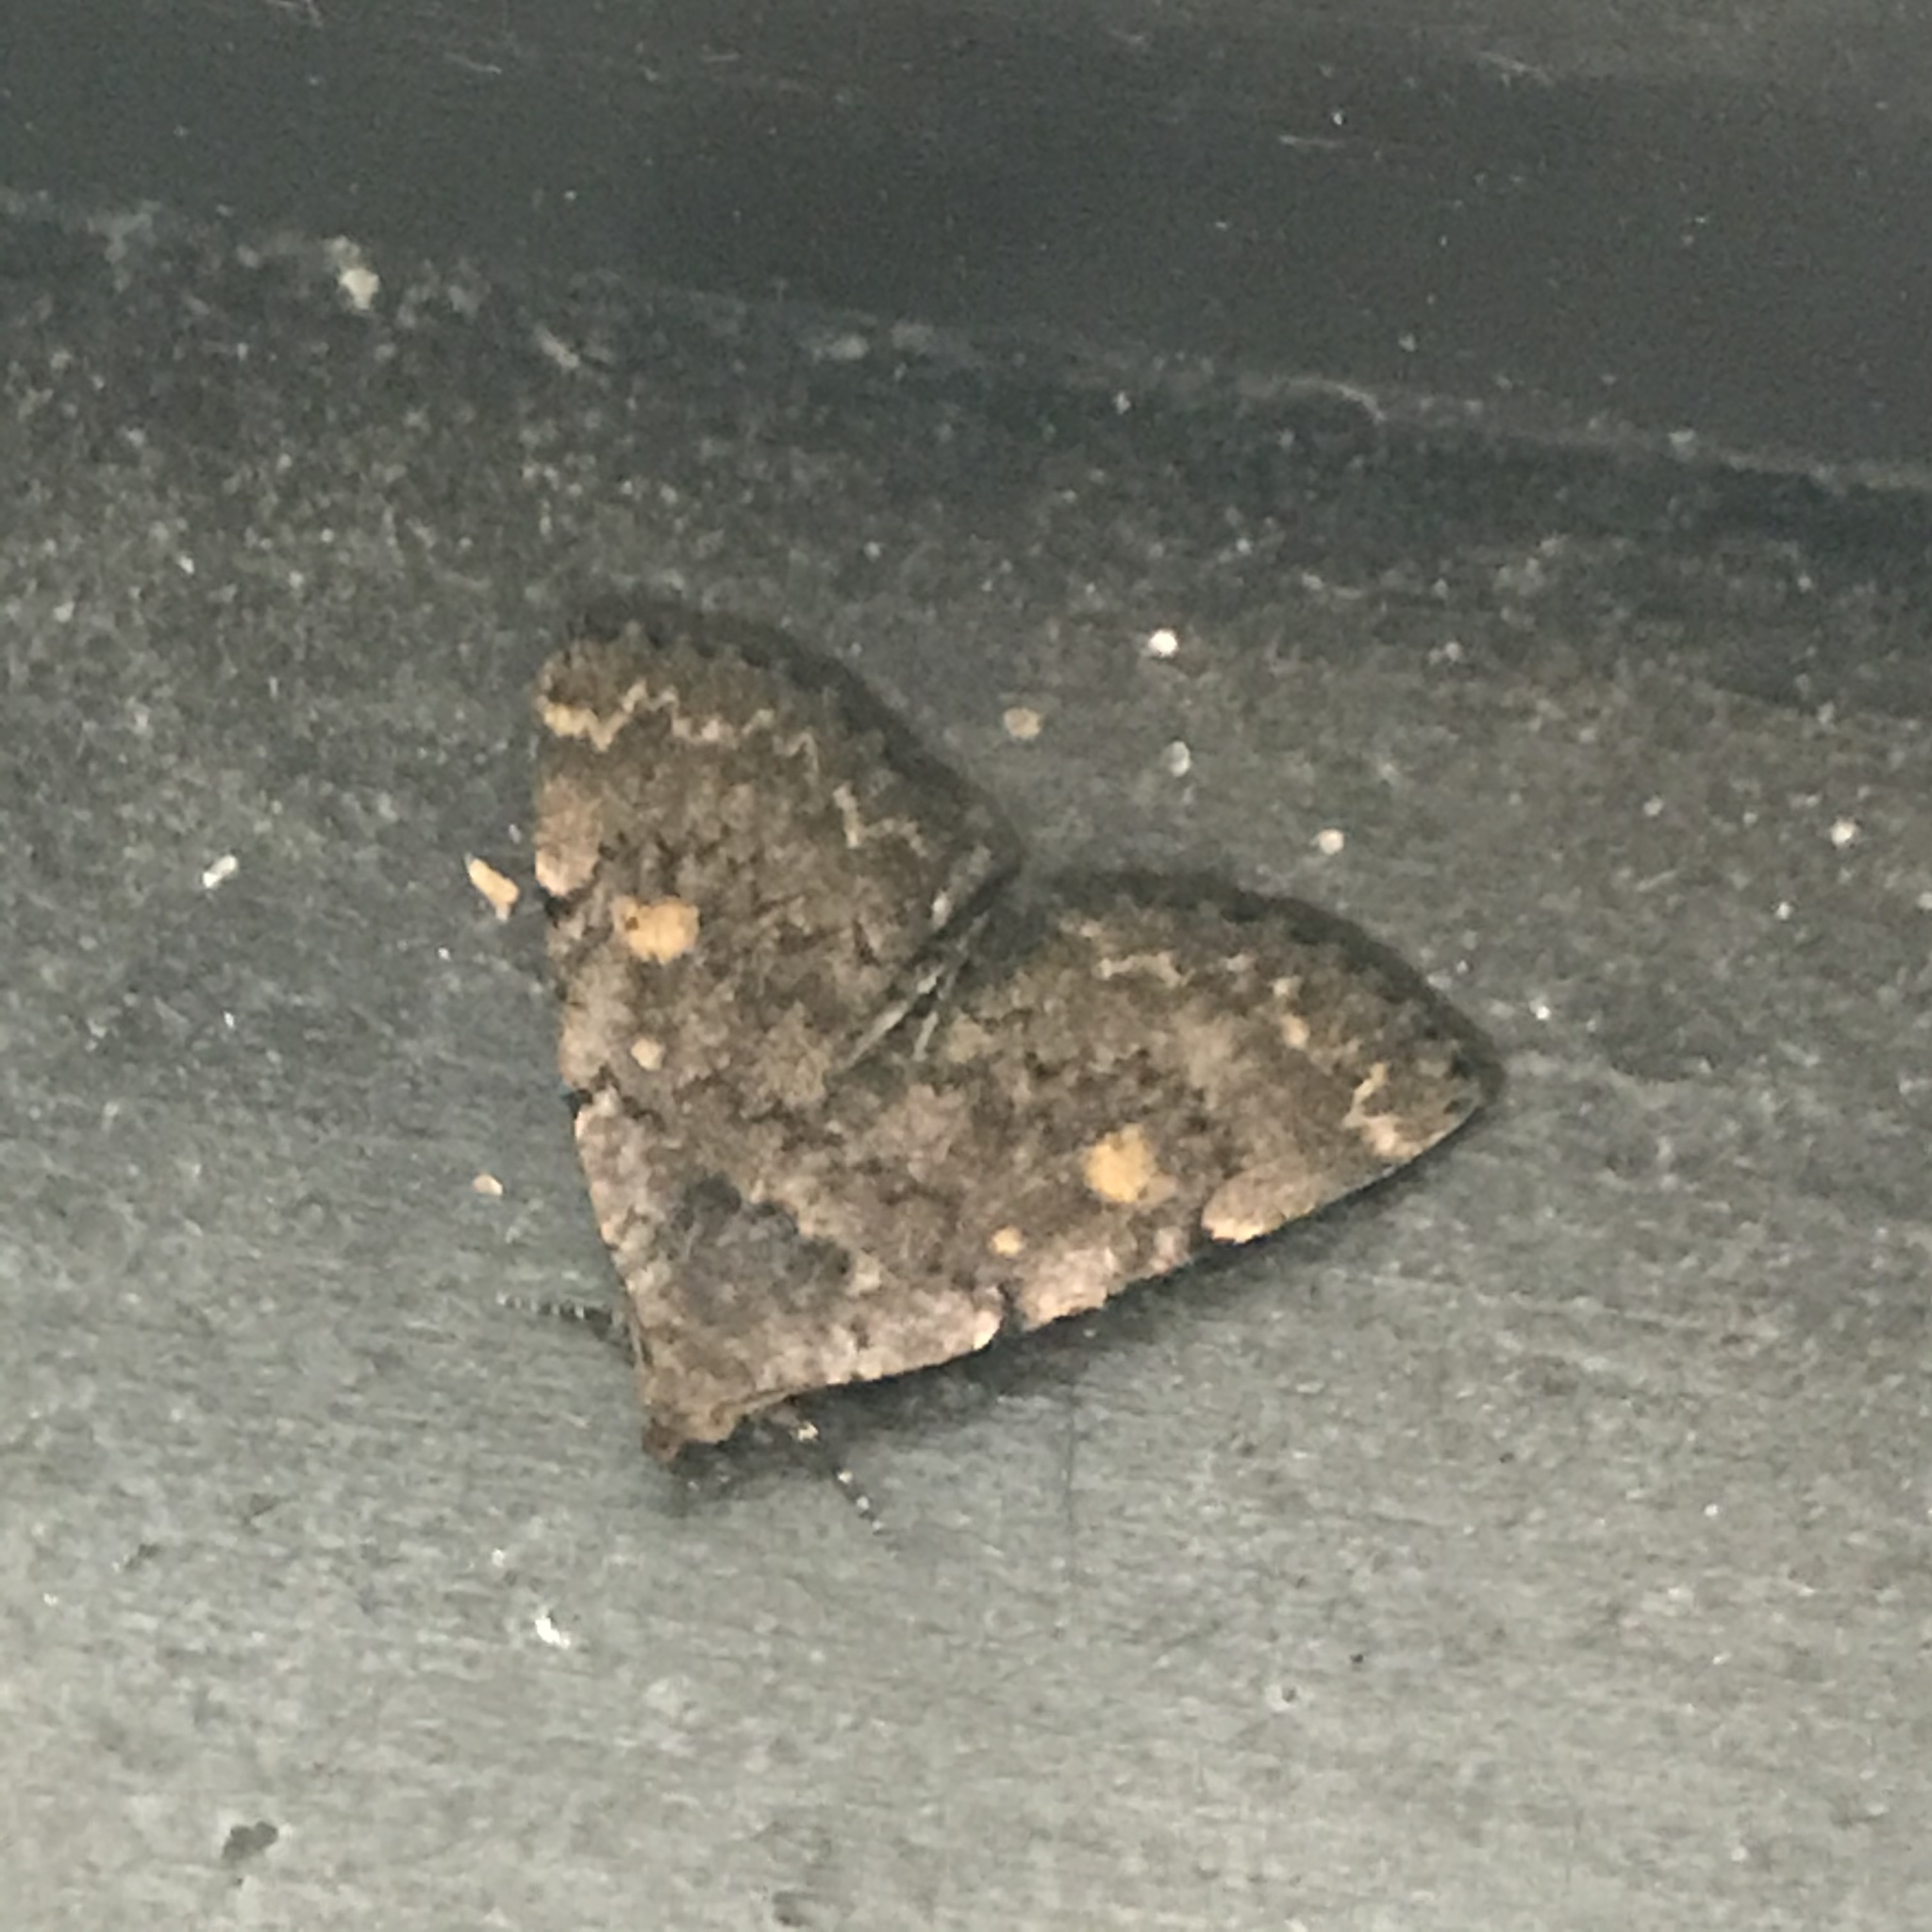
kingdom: Animalia
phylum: Arthropoda
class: Insecta
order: Lepidoptera
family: Erebidae
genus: Idia
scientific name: Idia aemula
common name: Common idia moth
